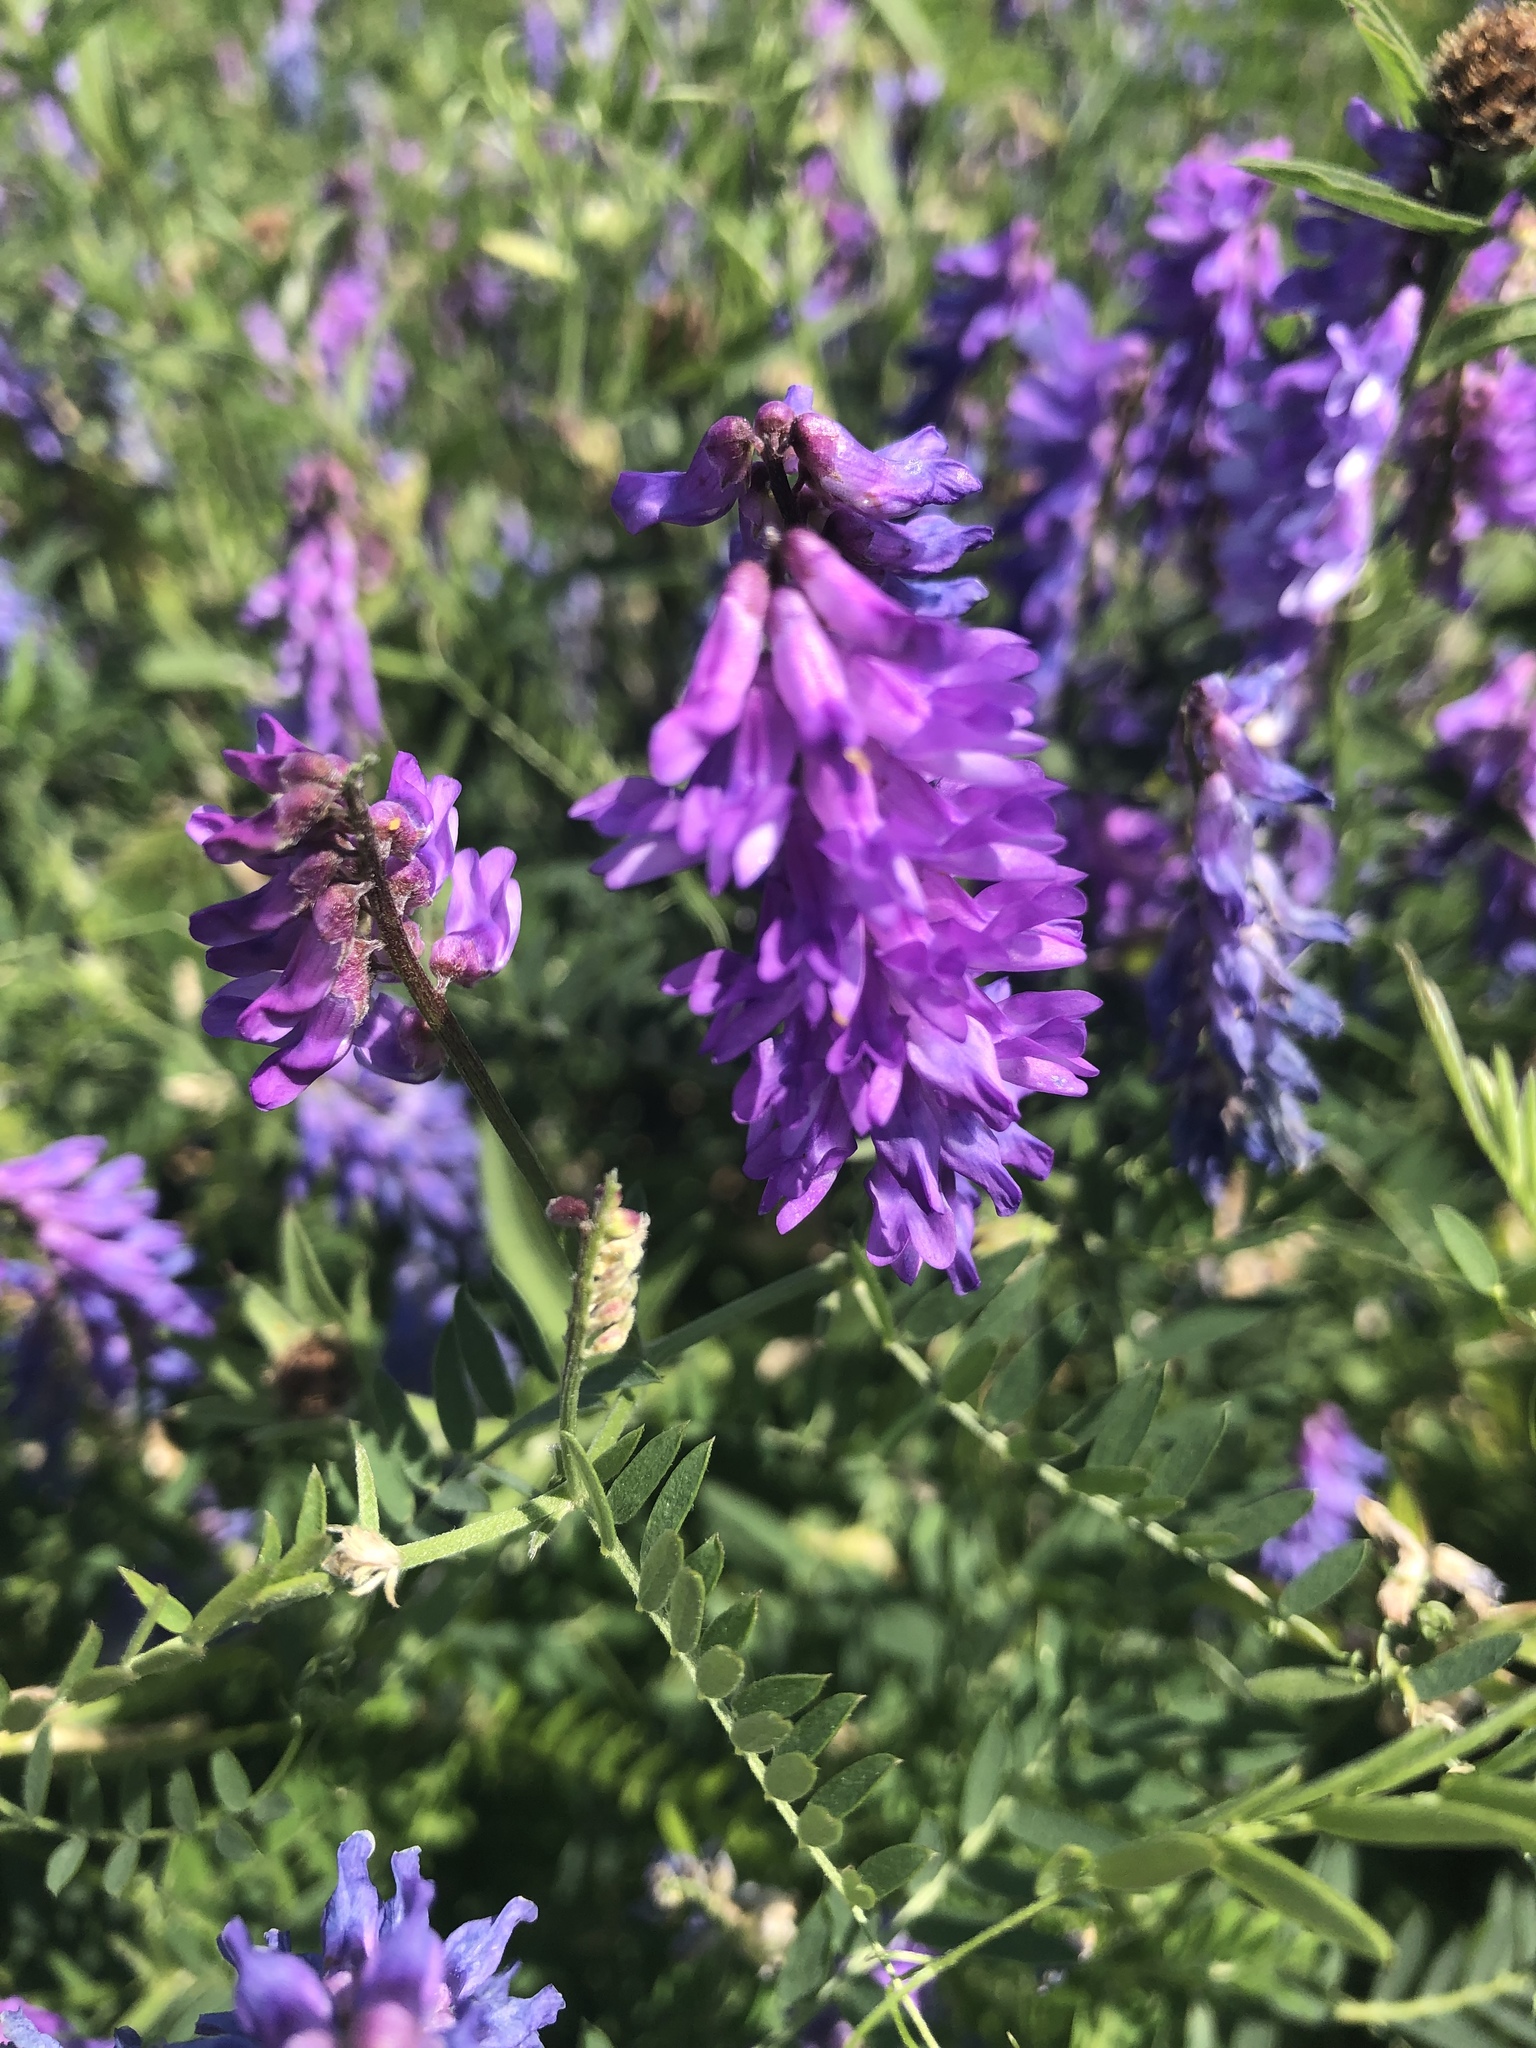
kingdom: Plantae
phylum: Tracheophyta
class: Magnoliopsida
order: Fabales
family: Fabaceae
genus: Vicia
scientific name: Vicia cracca
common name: Bird vetch
